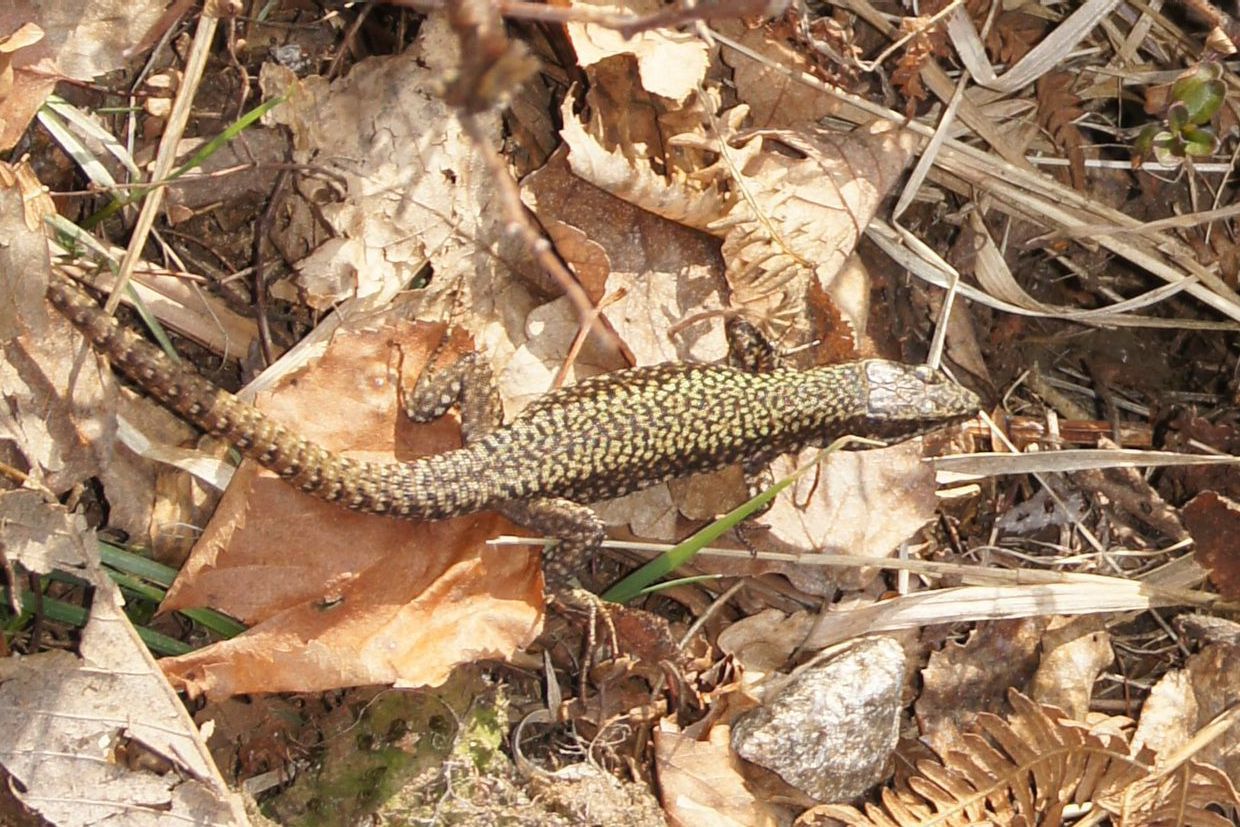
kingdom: Animalia
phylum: Chordata
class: Squamata
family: Lacertidae
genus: Podarcis
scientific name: Podarcis muralis
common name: Common wall lizard
